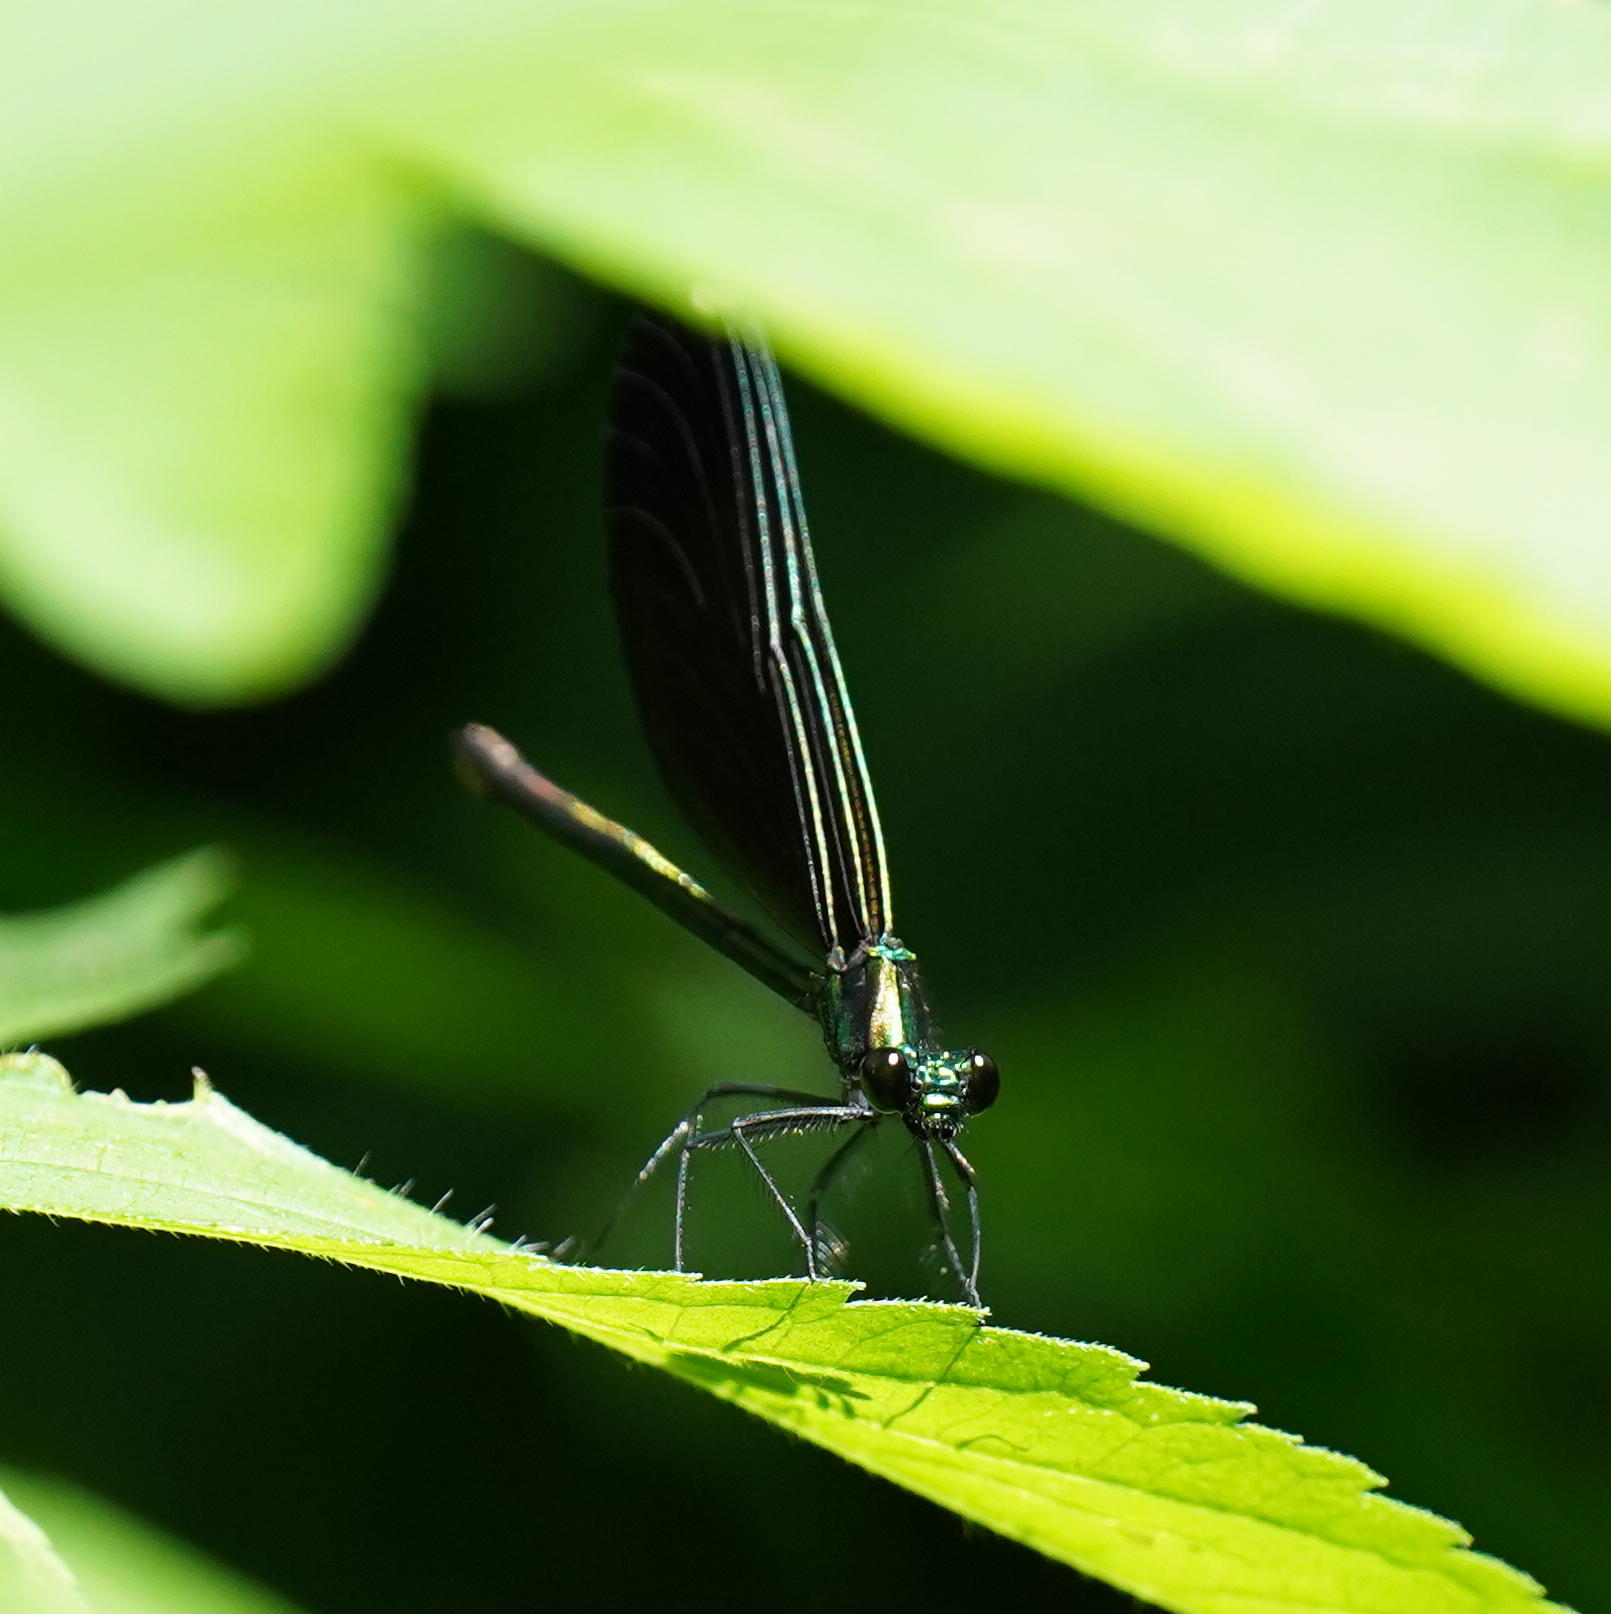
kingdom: Animalia
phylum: Arthropoda
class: Insecta
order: Odonata
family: Calopterygidae
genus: Calopteryx
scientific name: Calopteryx maculata
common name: Ebony jewelwing
